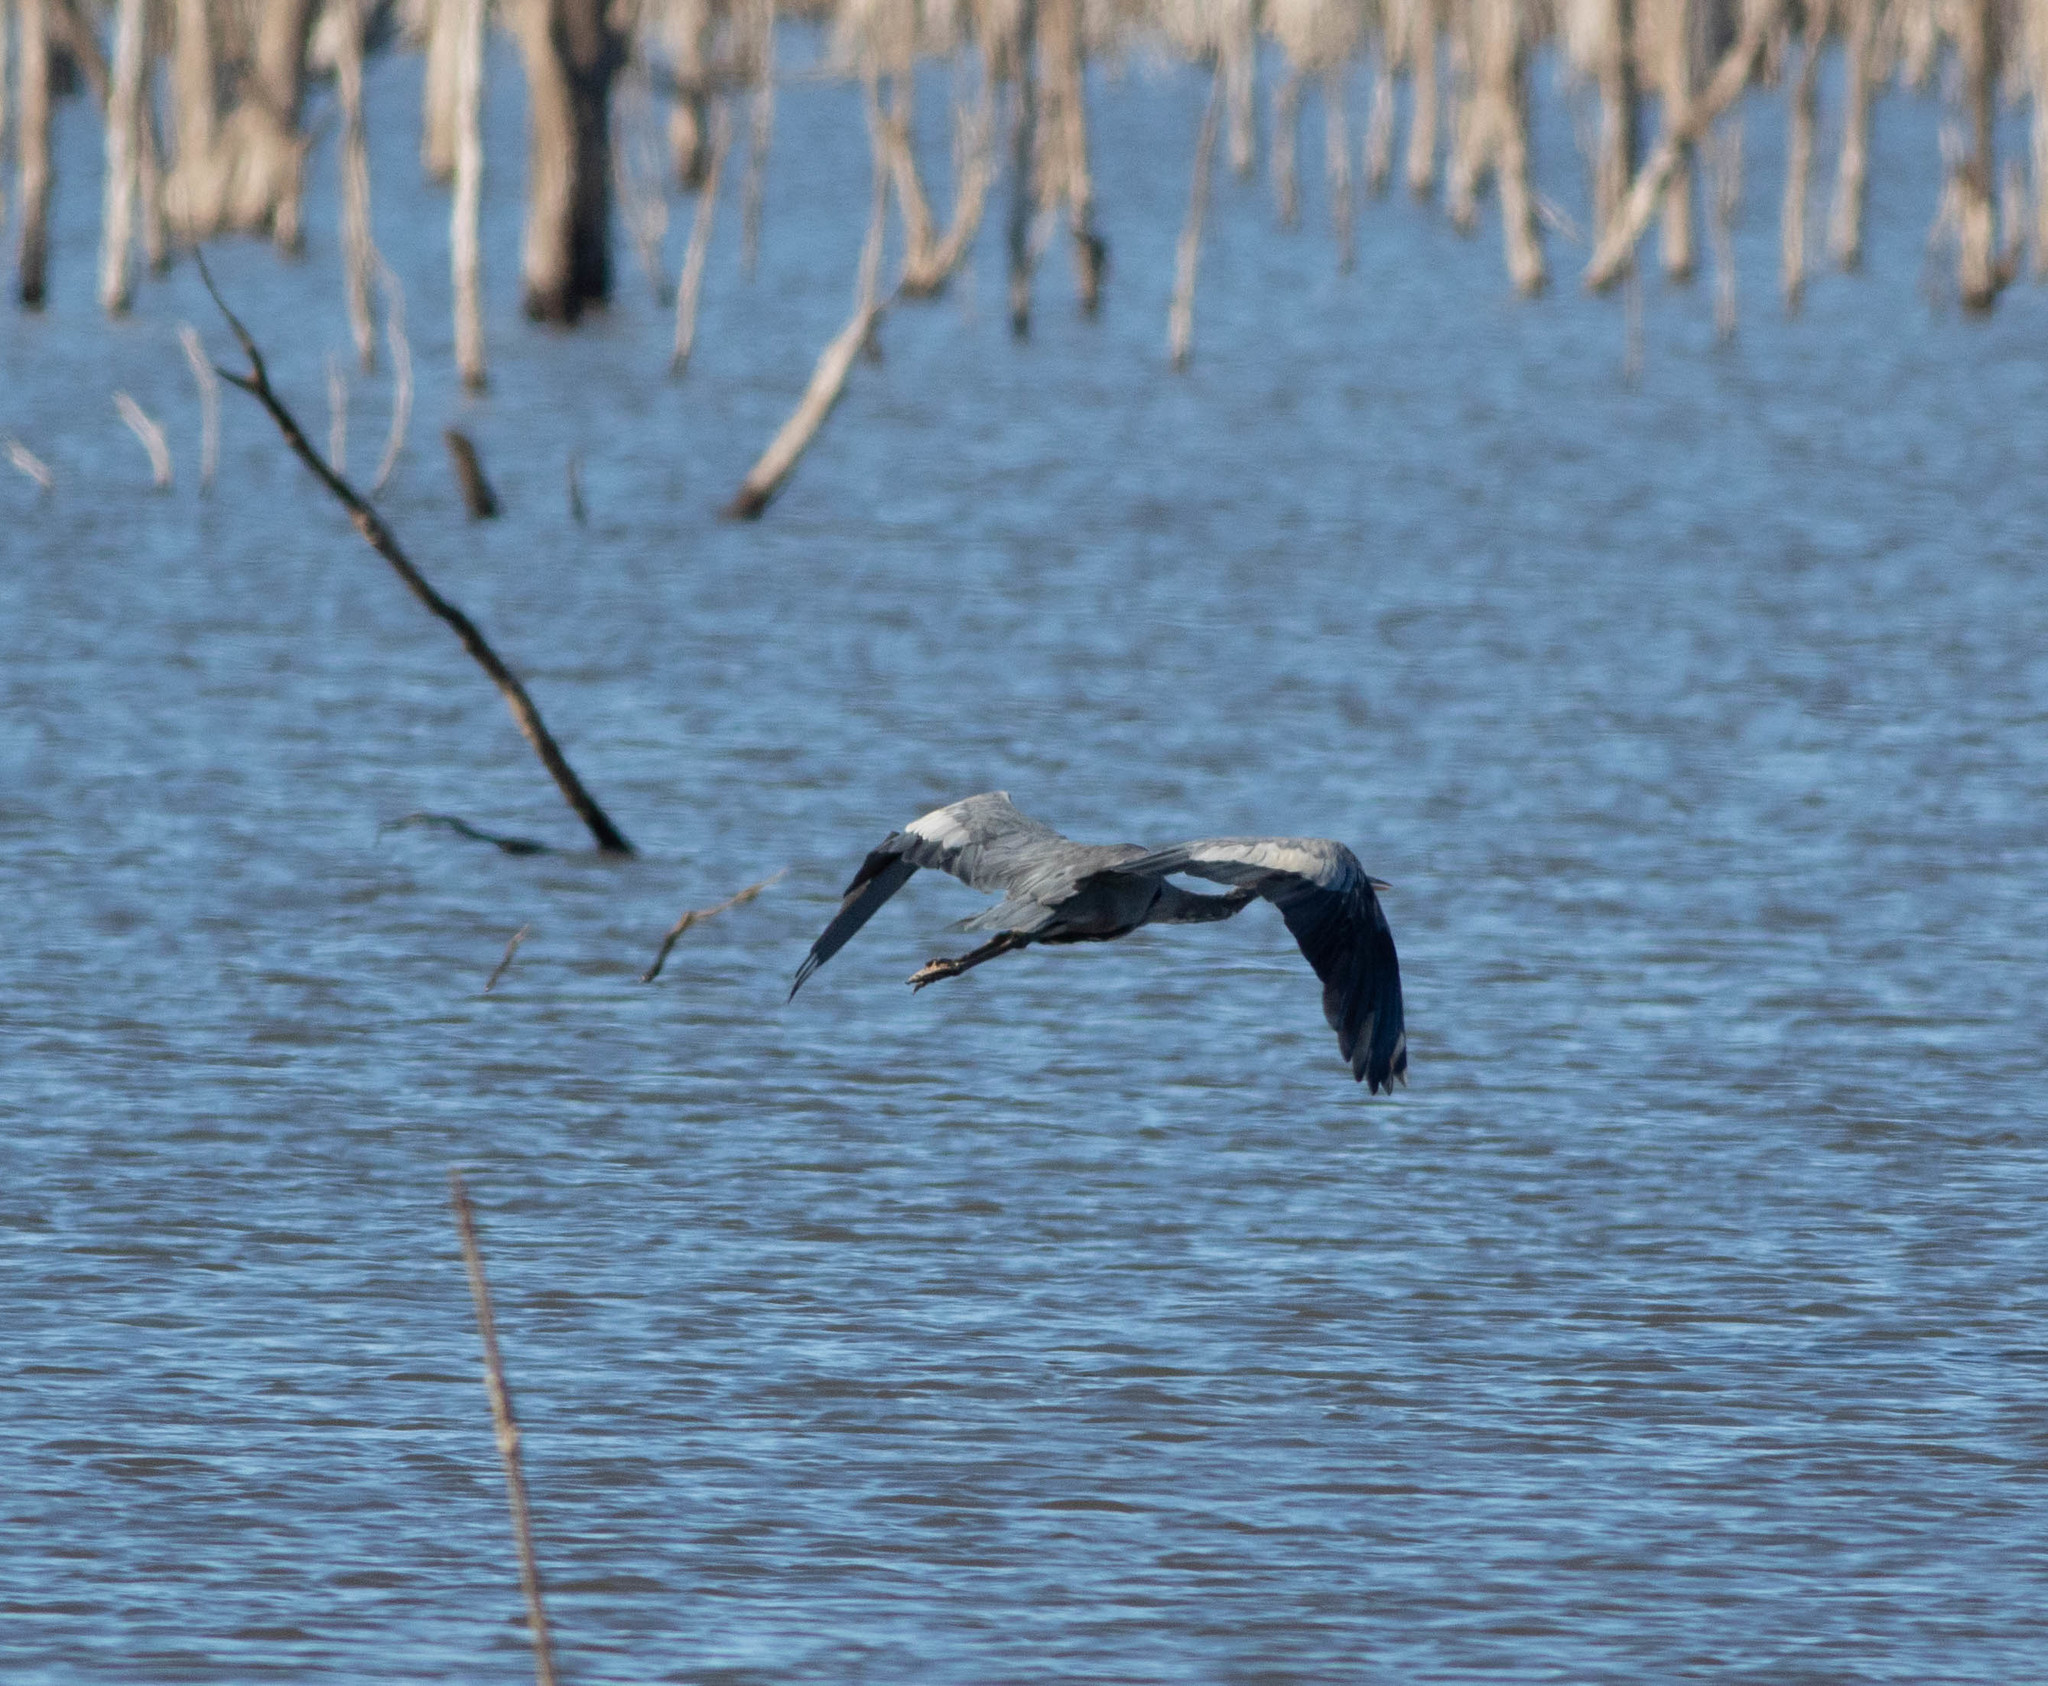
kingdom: Animalia
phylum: Chordata
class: Aves
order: Pelecaniformes
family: Ardeidae
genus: Ardea
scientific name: Ardea herodias
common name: Great blue heron
